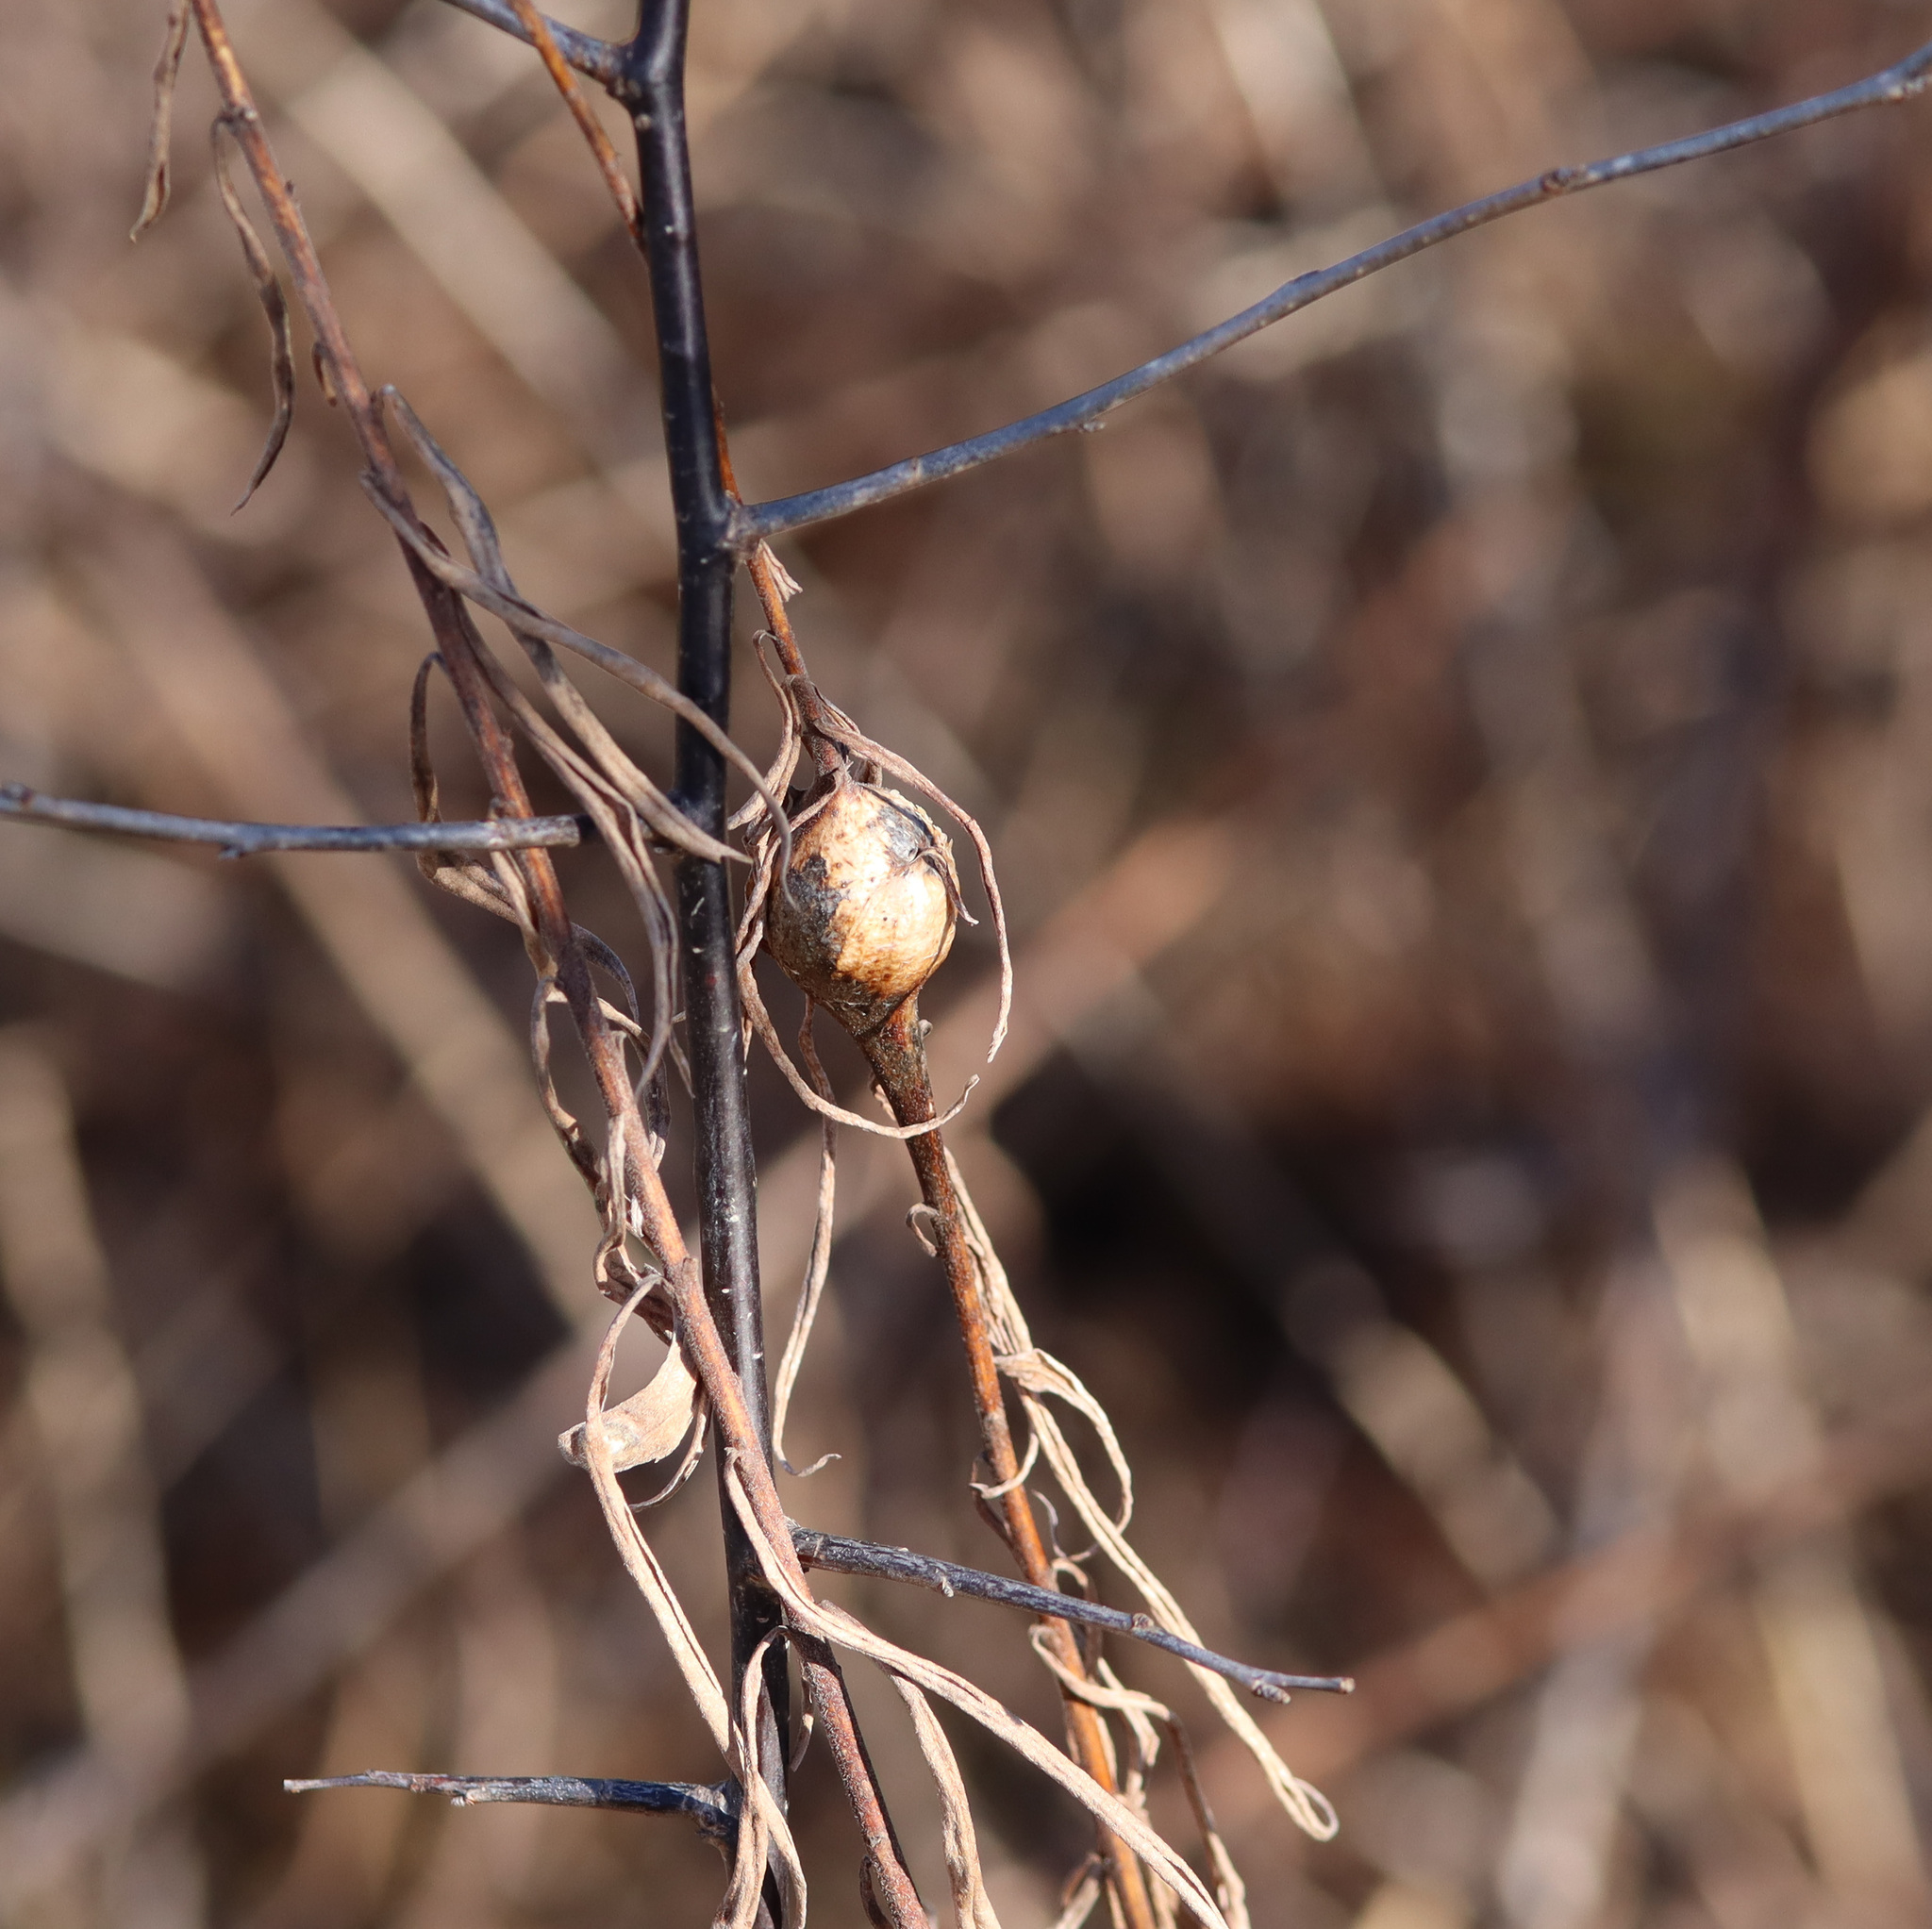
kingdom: Animalia
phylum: Arthropoda
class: Insecta
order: Diptera
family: Tephritidae
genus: Eurosta
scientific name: Eurosta solidaginis
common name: Goldenrod gall fly
